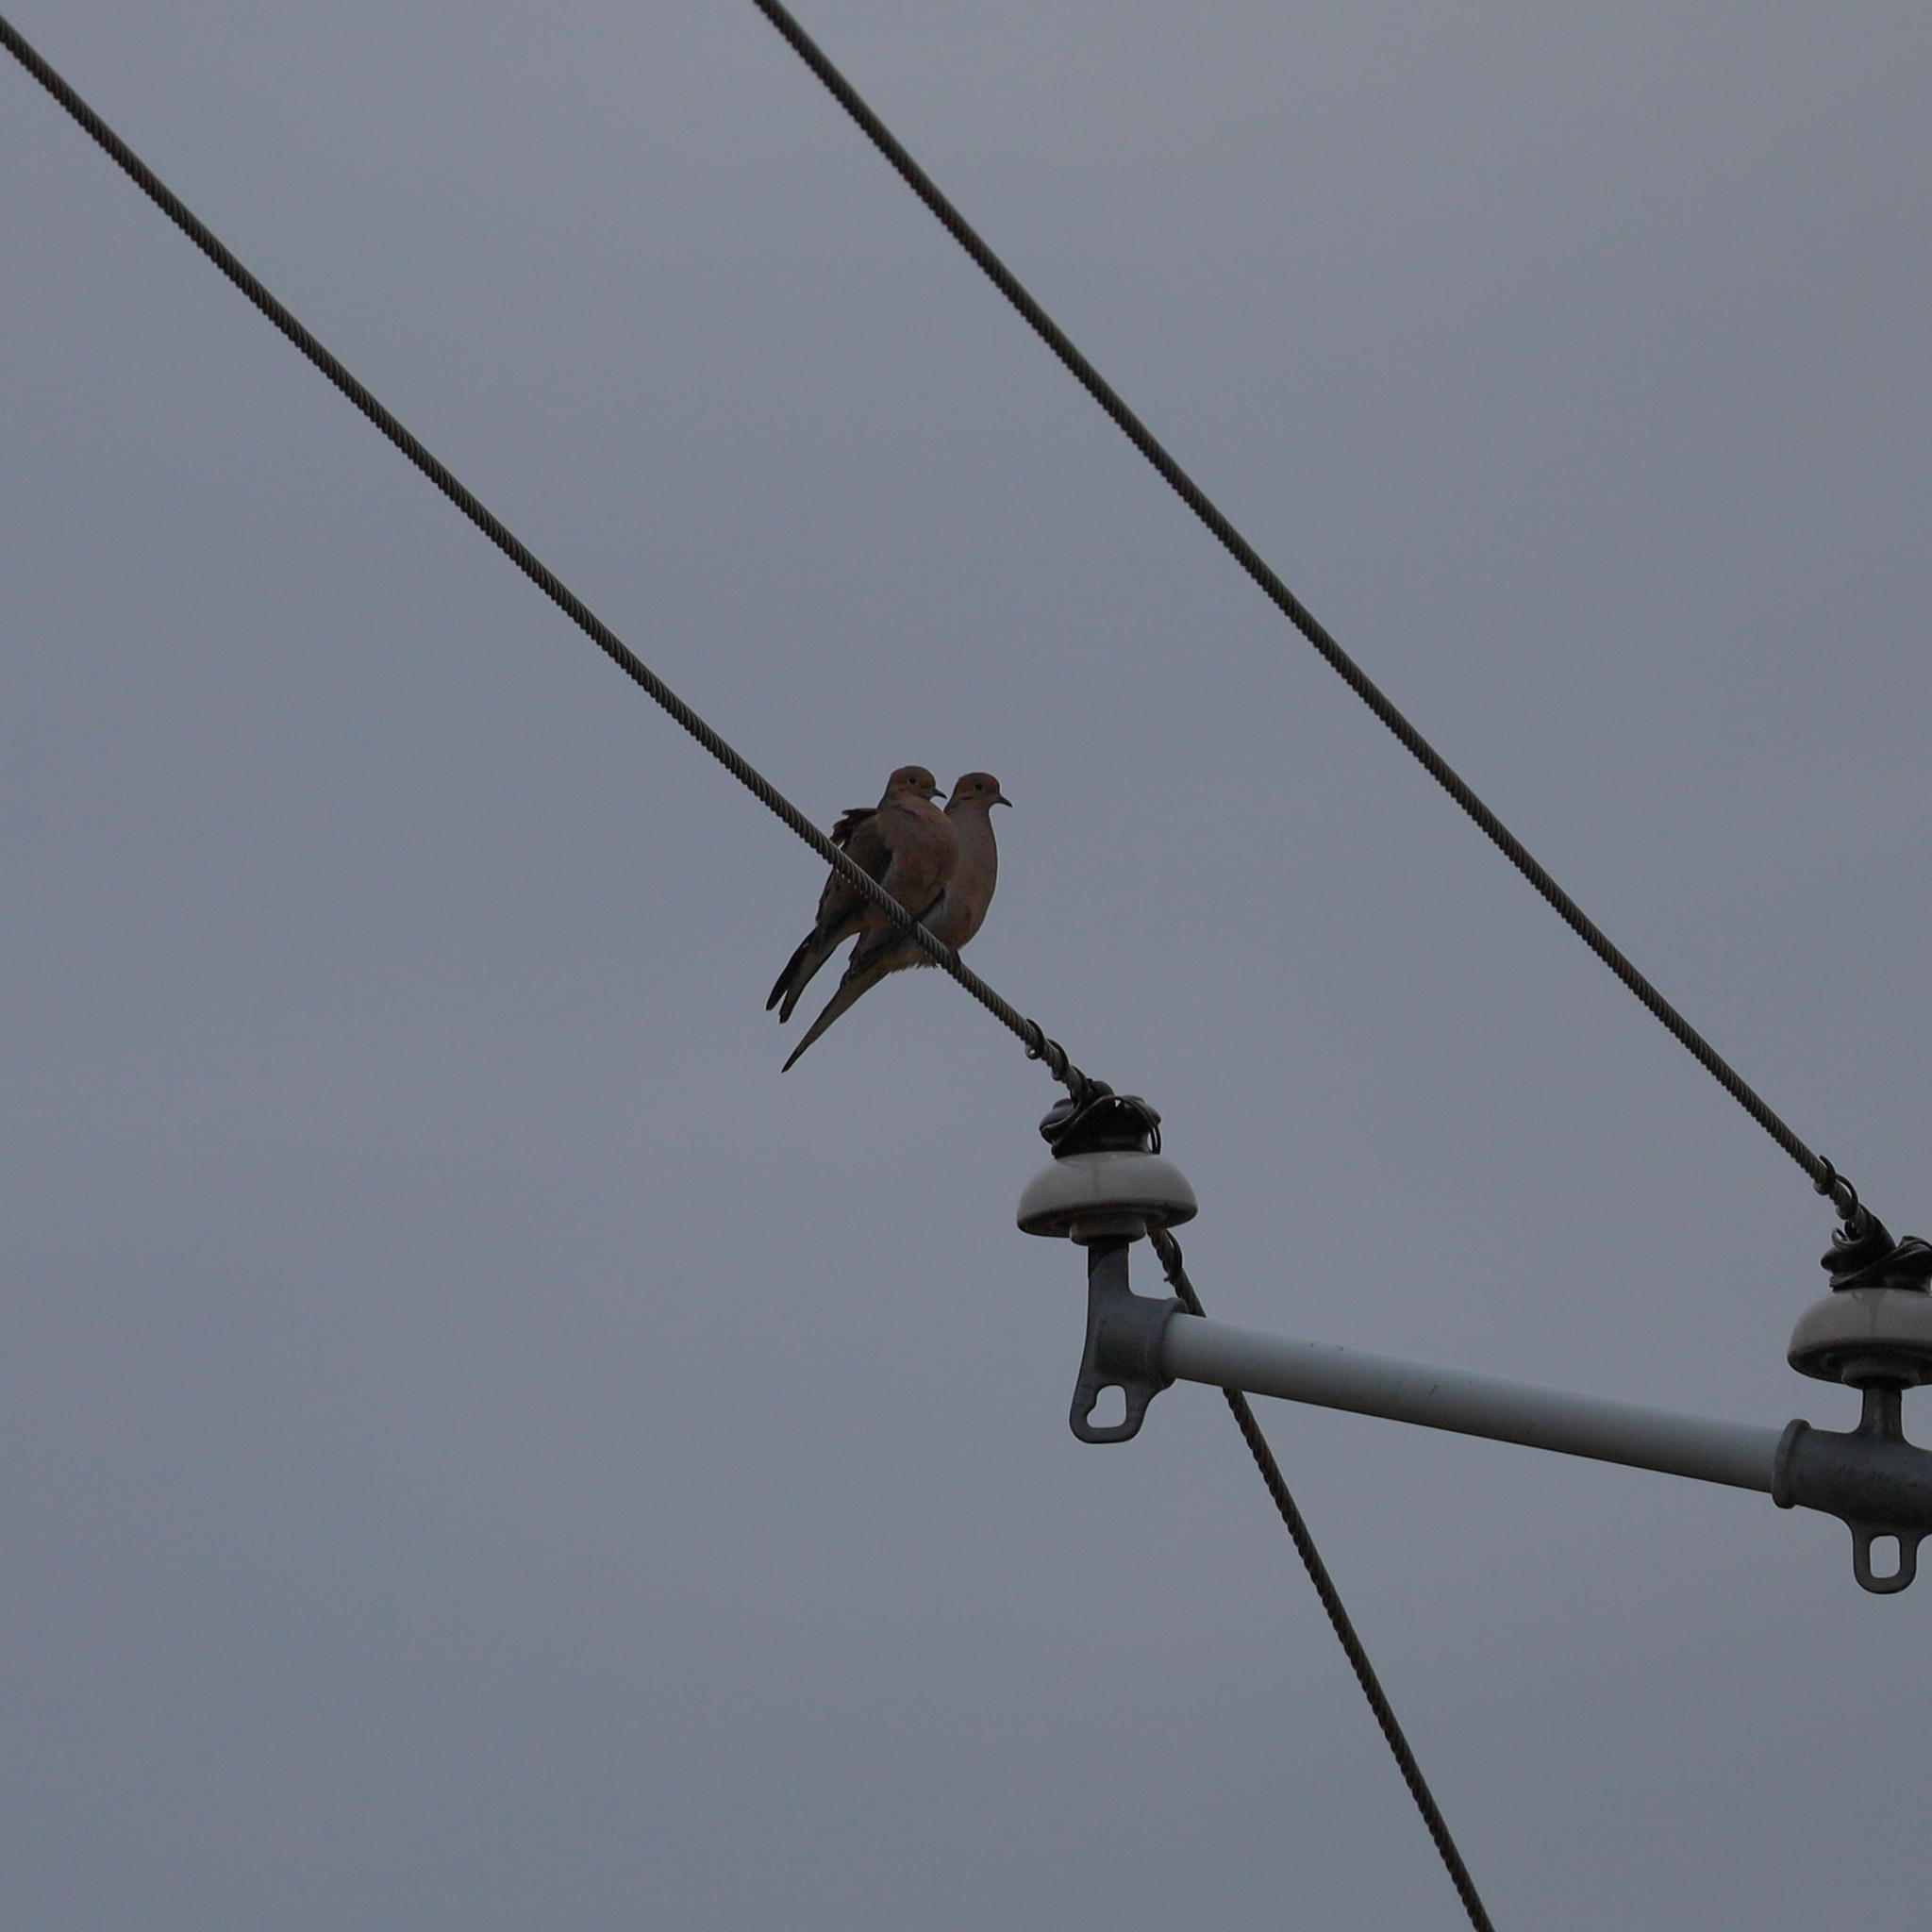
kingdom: Animalia
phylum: Chordata
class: Aves
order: Columbiformes
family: Columbidae
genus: Zenaida
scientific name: Zenaida macroura
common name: Mourning dove
